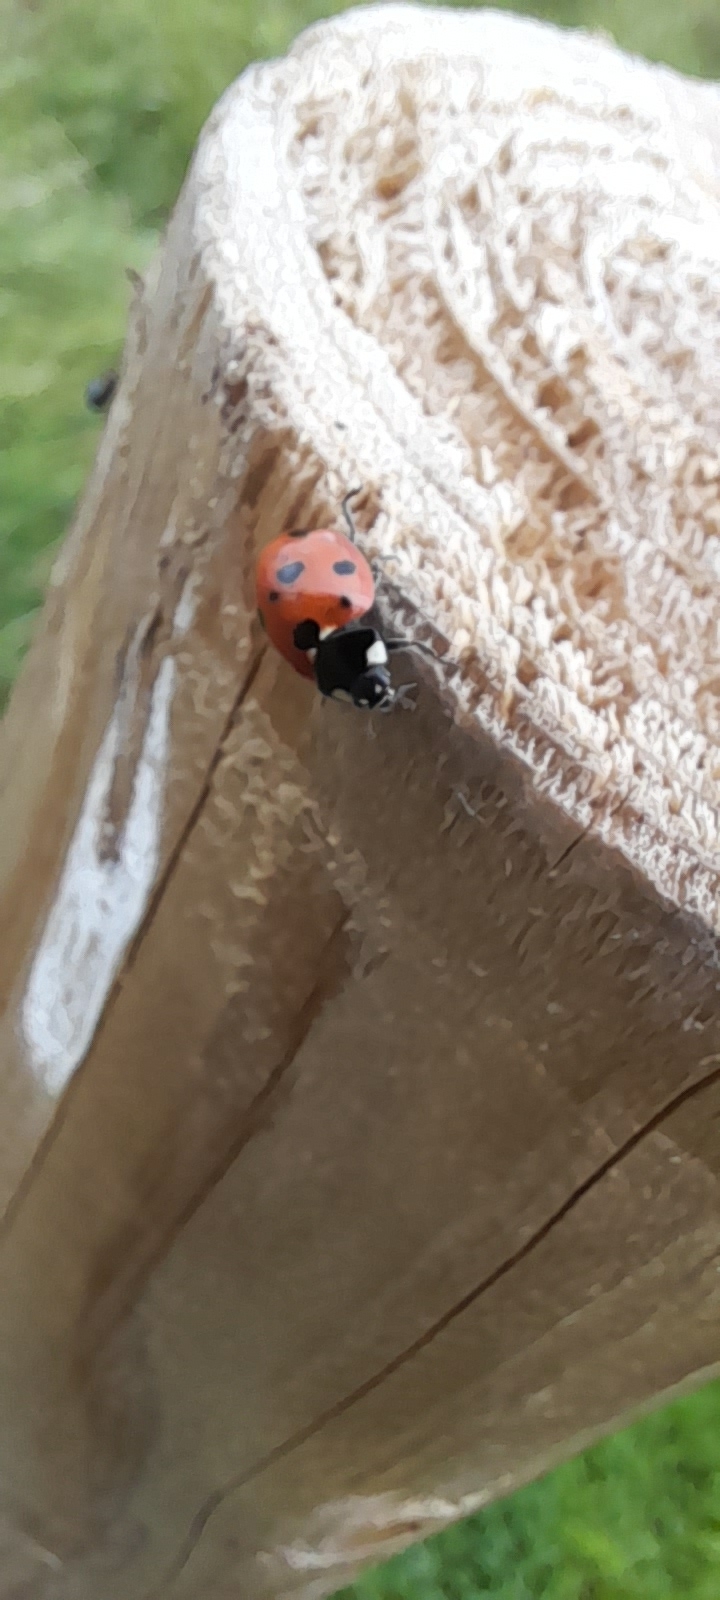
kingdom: Animalia
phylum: Arthropoda
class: Insecta
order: Coleoptera
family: Coccinellidae
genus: Coccinella
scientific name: Coccinella septempunctata
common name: Sevenspotted lady beetle
